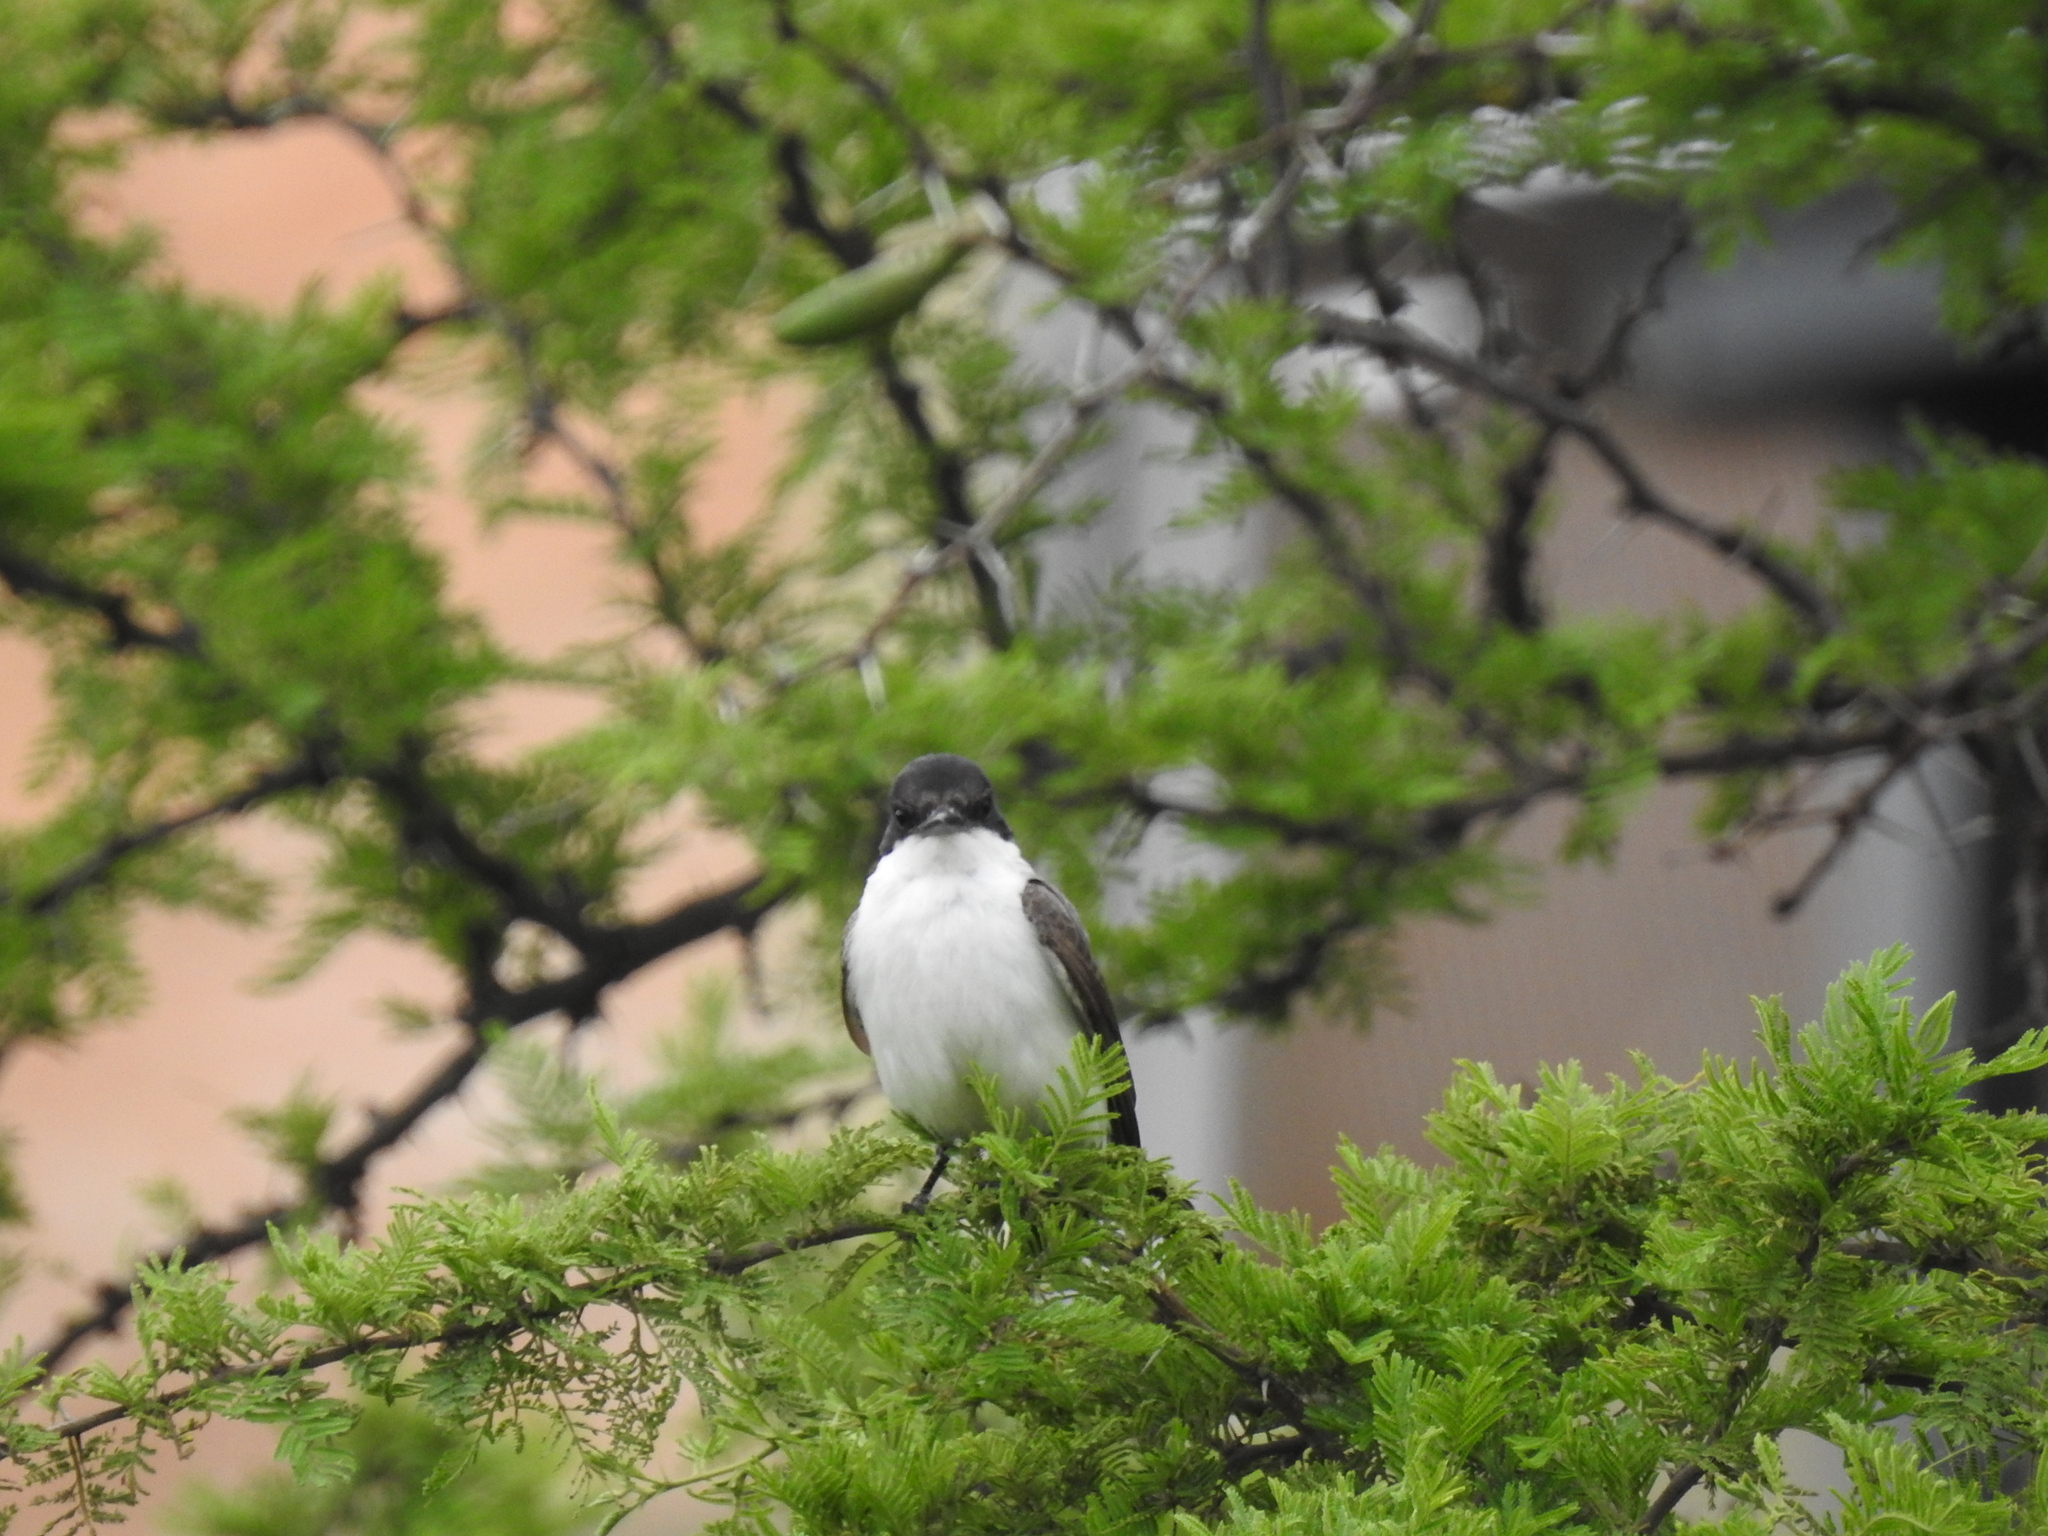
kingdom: Animalia
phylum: Chordata
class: Aves
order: Passeriformes
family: Tyrannidae
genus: Tyrannus
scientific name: Tyrannus savana
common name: Fork-tailed flycatcher
